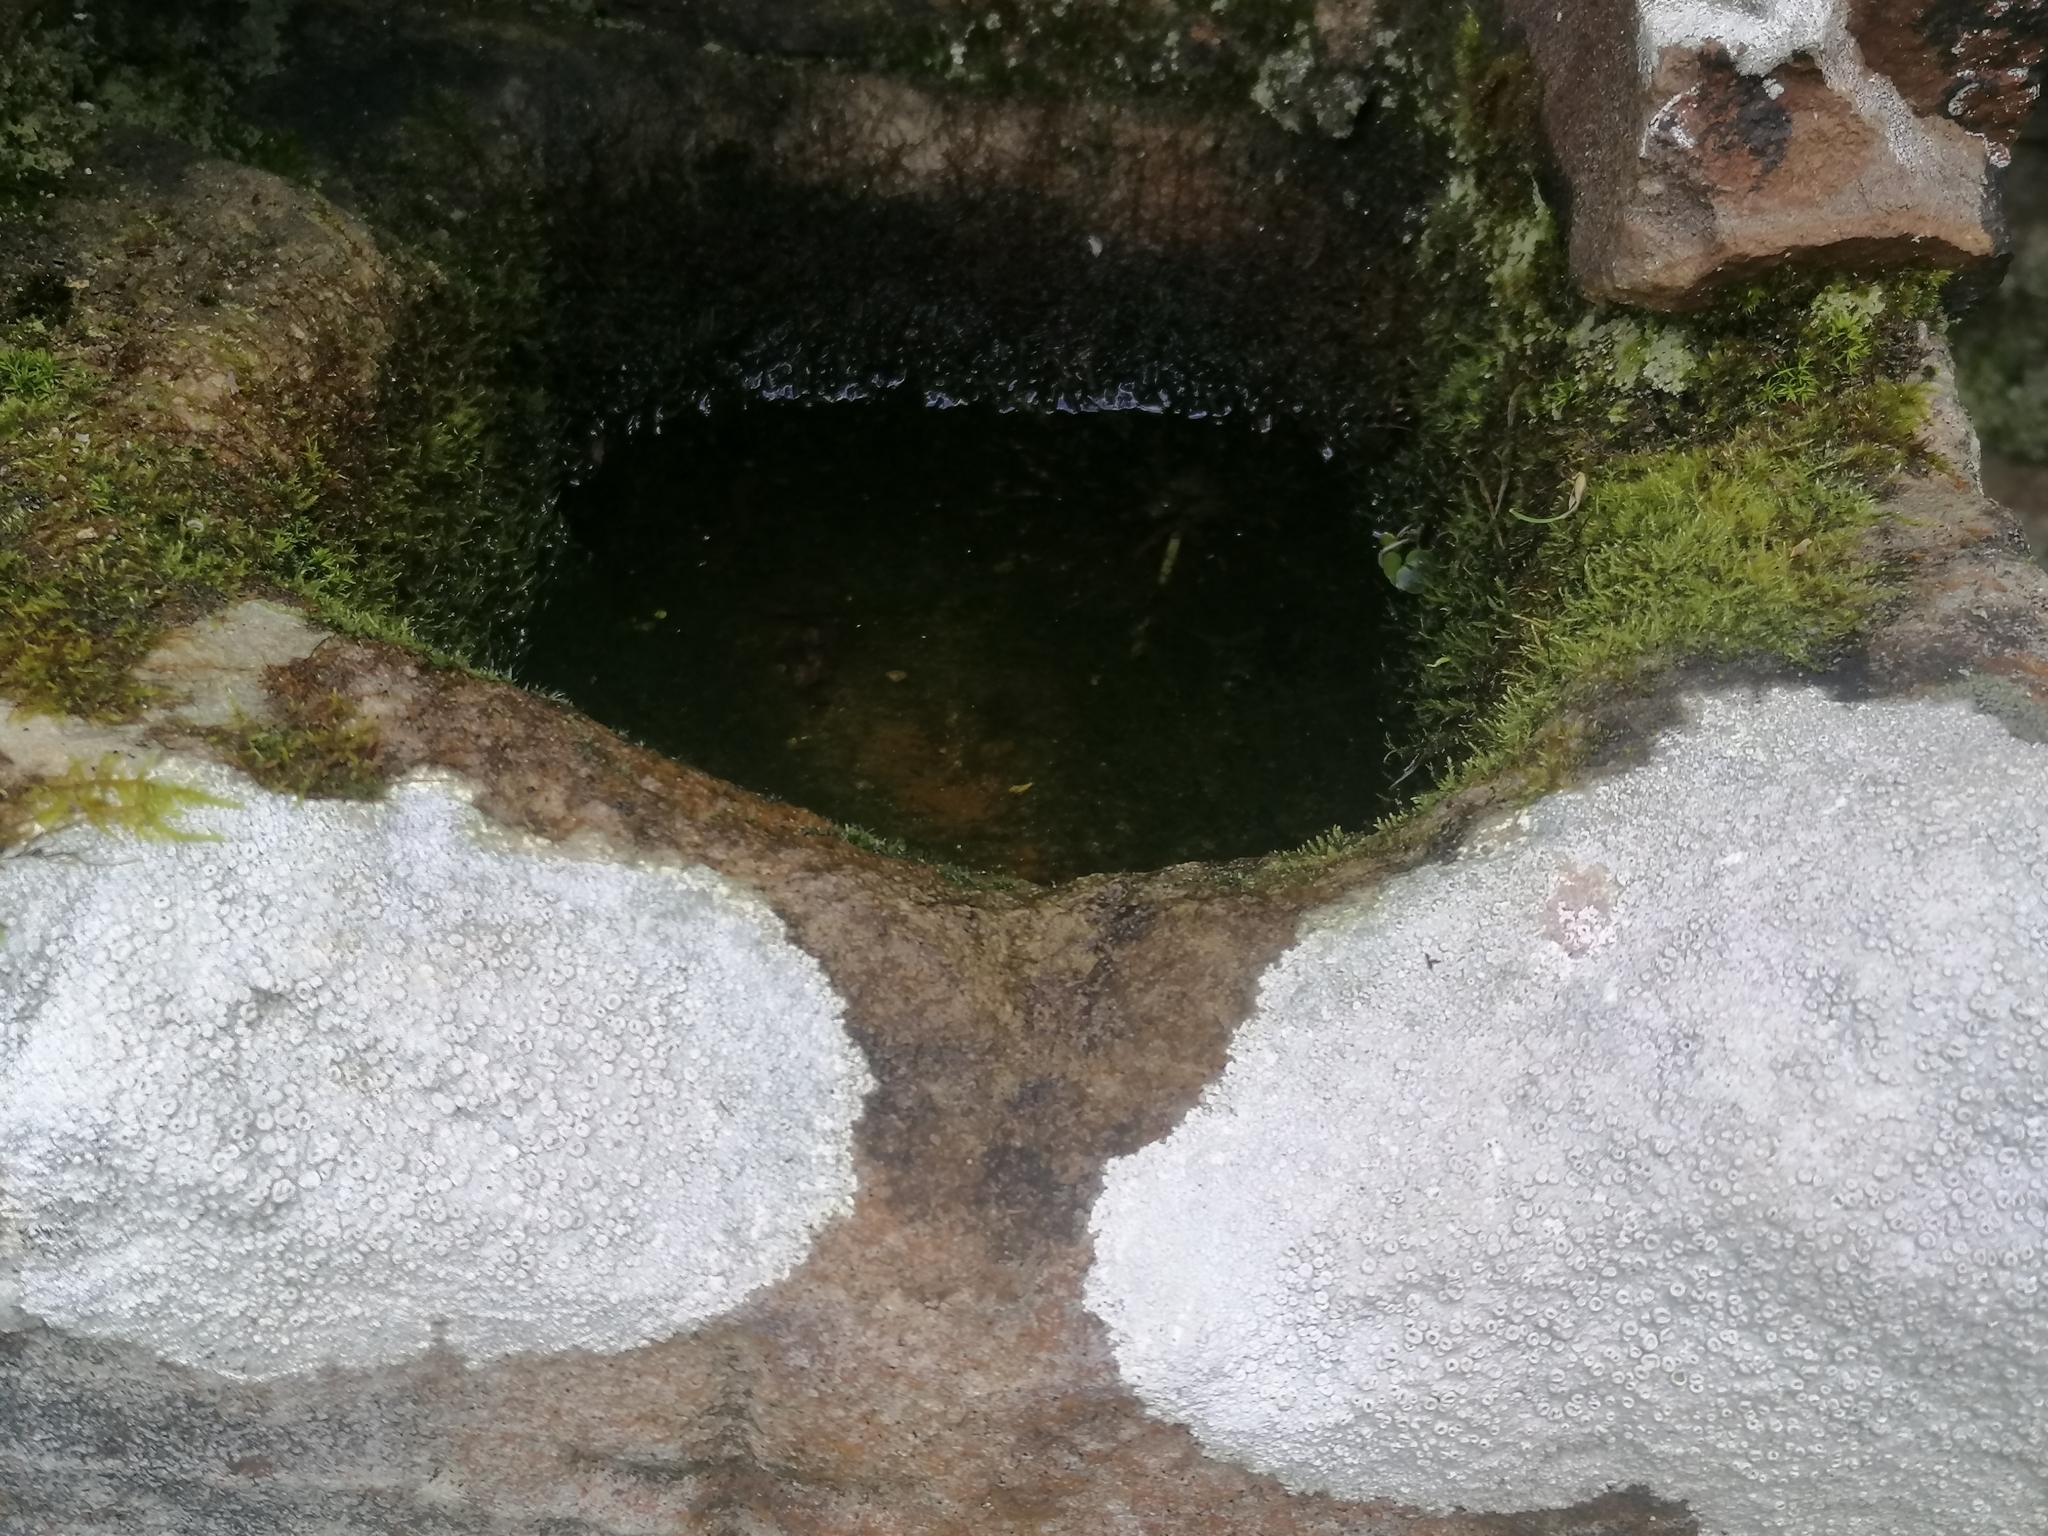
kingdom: Fungi
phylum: Ascomycota
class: Lecanoromycetes
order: Pertusariales
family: Ochrolechiaceae
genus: Ochrolechia
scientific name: Ochrolechia parella
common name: Crab's eye lichen
